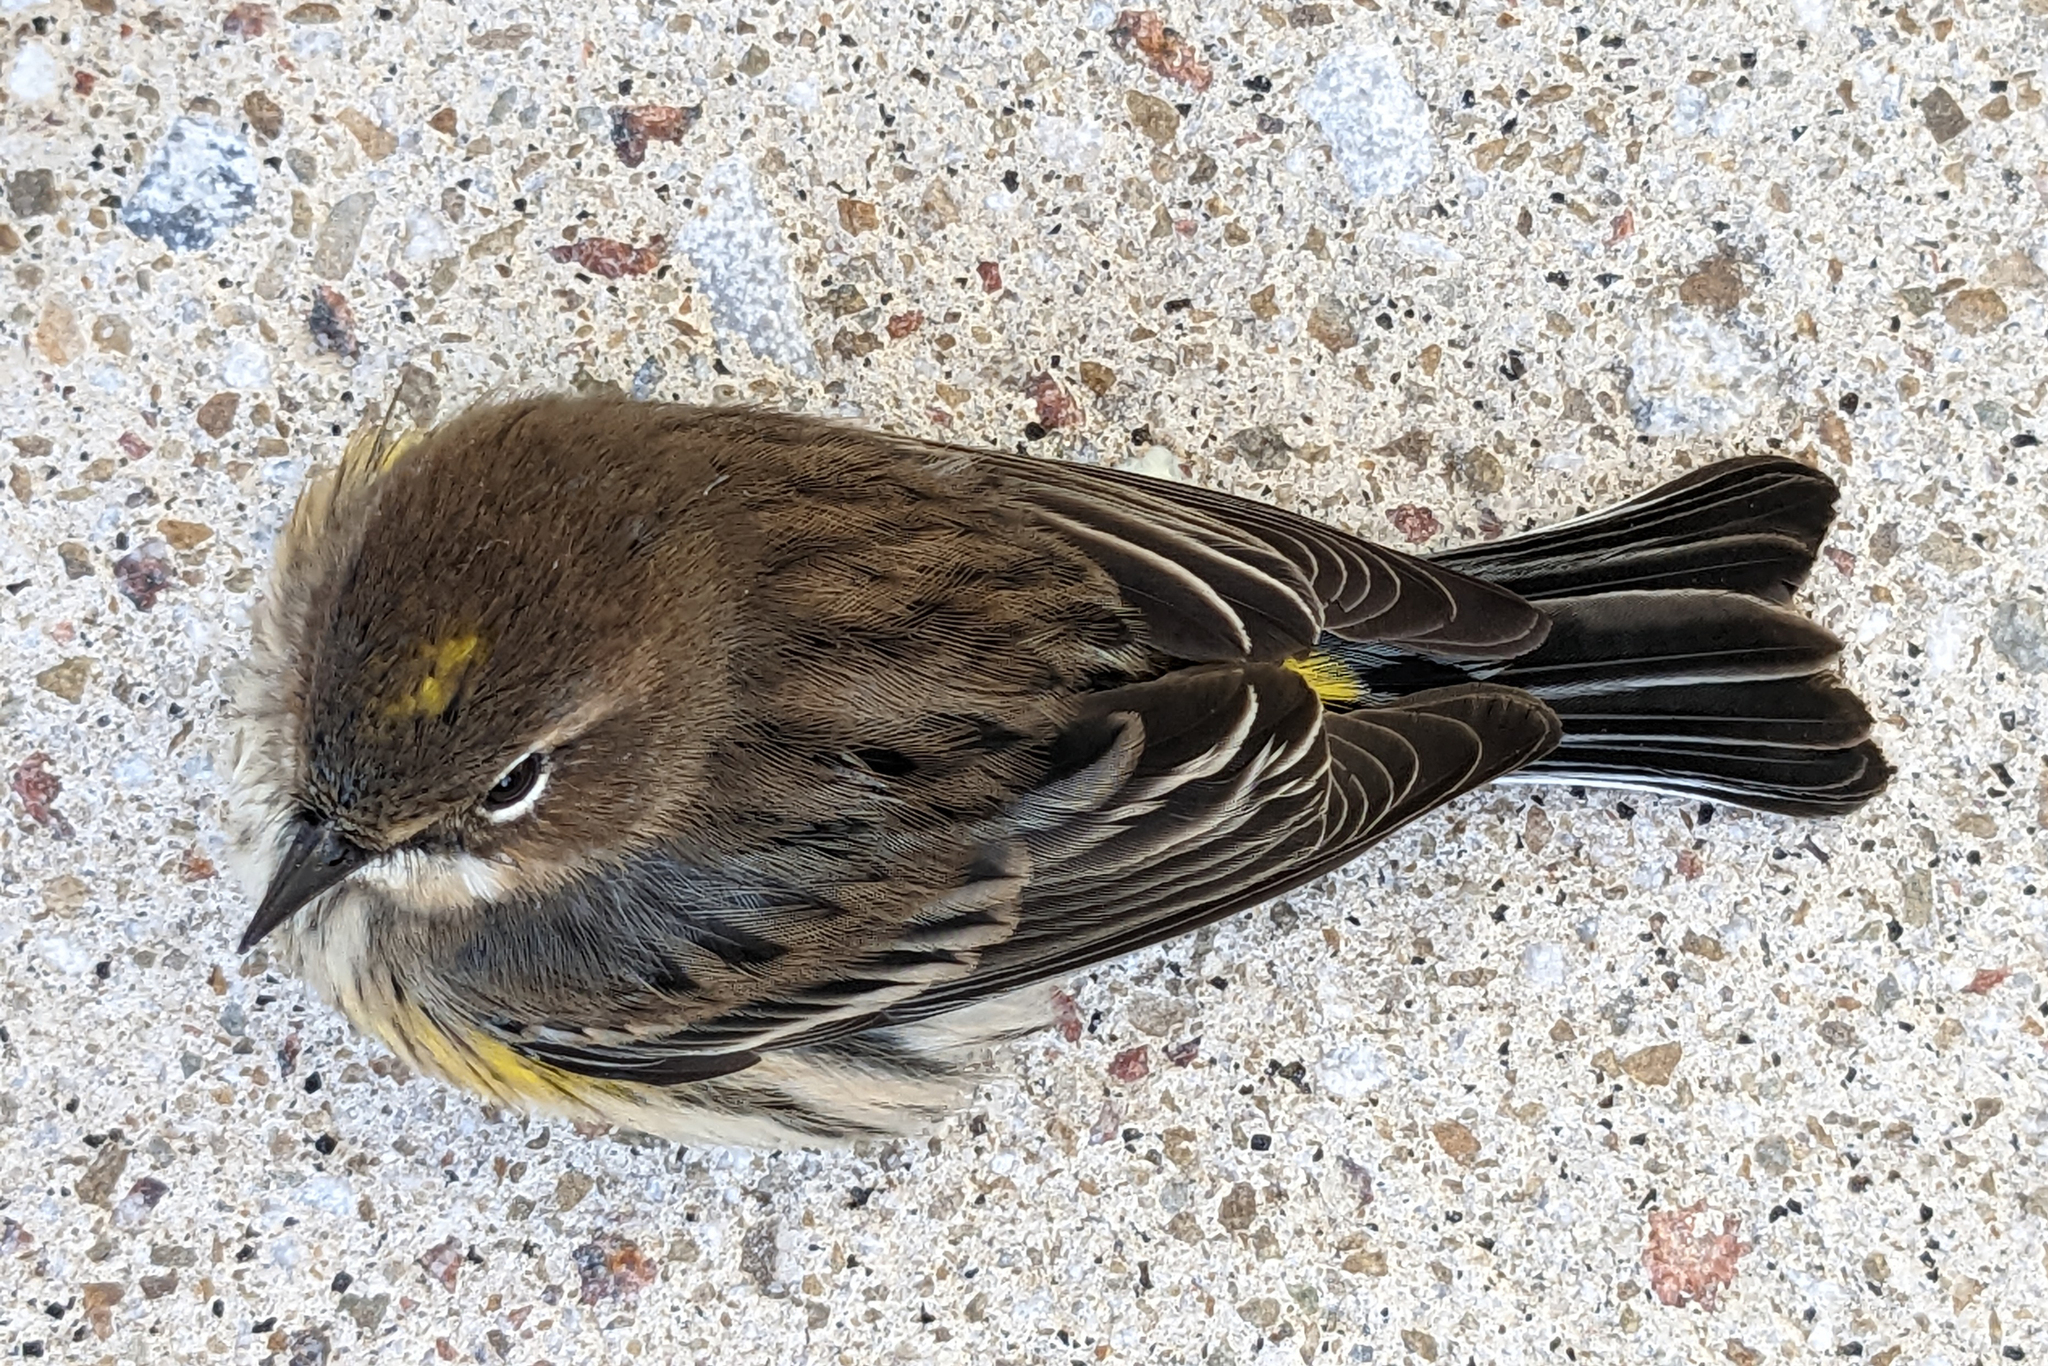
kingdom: Animalia
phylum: Chordata
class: Aves
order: Passeriformes
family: Parulidae
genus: Setophaga
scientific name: Setophaga coronata
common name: Myrtle warbler
